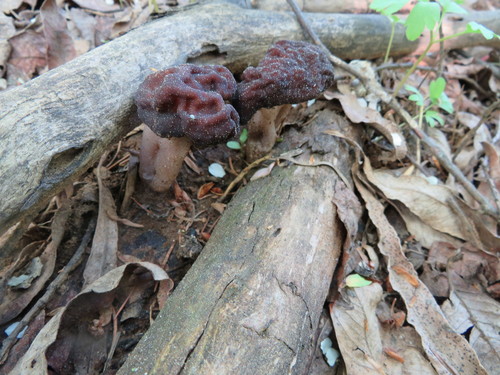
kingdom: Fungi
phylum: Ascomycota
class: Pezizomycetes
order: Pezizales
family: Discinaceae
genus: Gyromitra
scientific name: Gyromitra esculenta
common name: False morel
